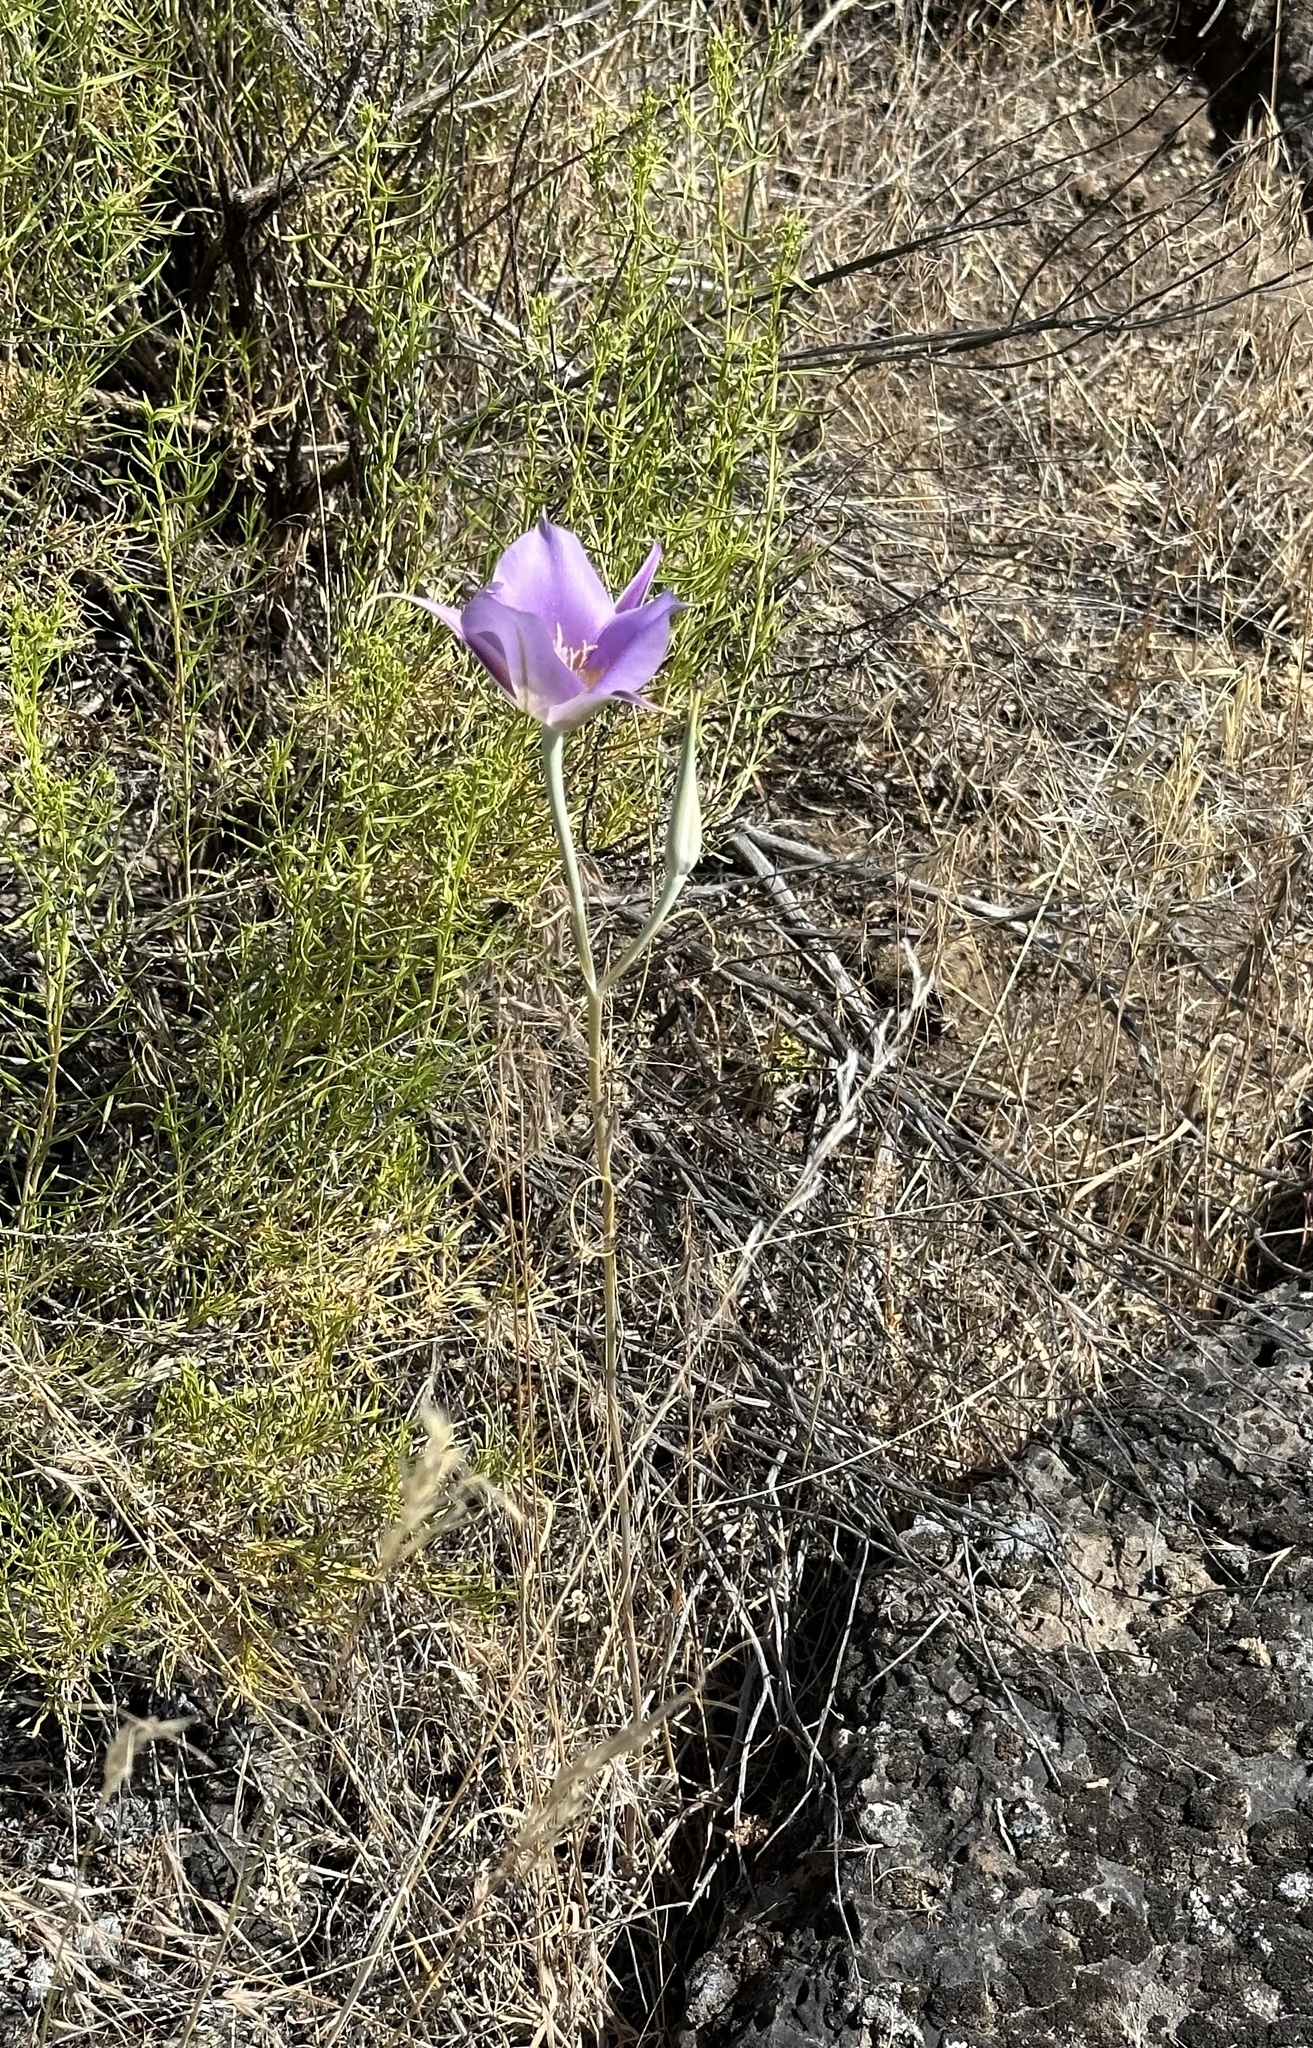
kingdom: Plantae
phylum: Tracheophyta
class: Liliopsida
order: Liliales
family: Liliaceae
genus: Calochortus
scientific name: Calochortus macrocarpus
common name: Green-band mariposa lily
